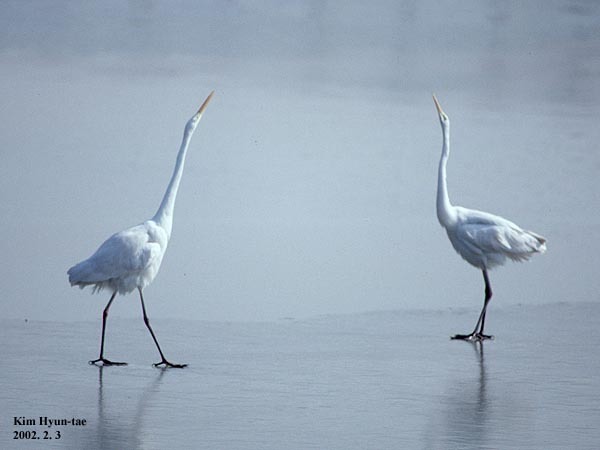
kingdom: Animalia
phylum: Chordata
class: Aves
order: Pelecaniformes
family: Ardeidae
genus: Ardea
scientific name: Ardea alba
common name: Great egret
